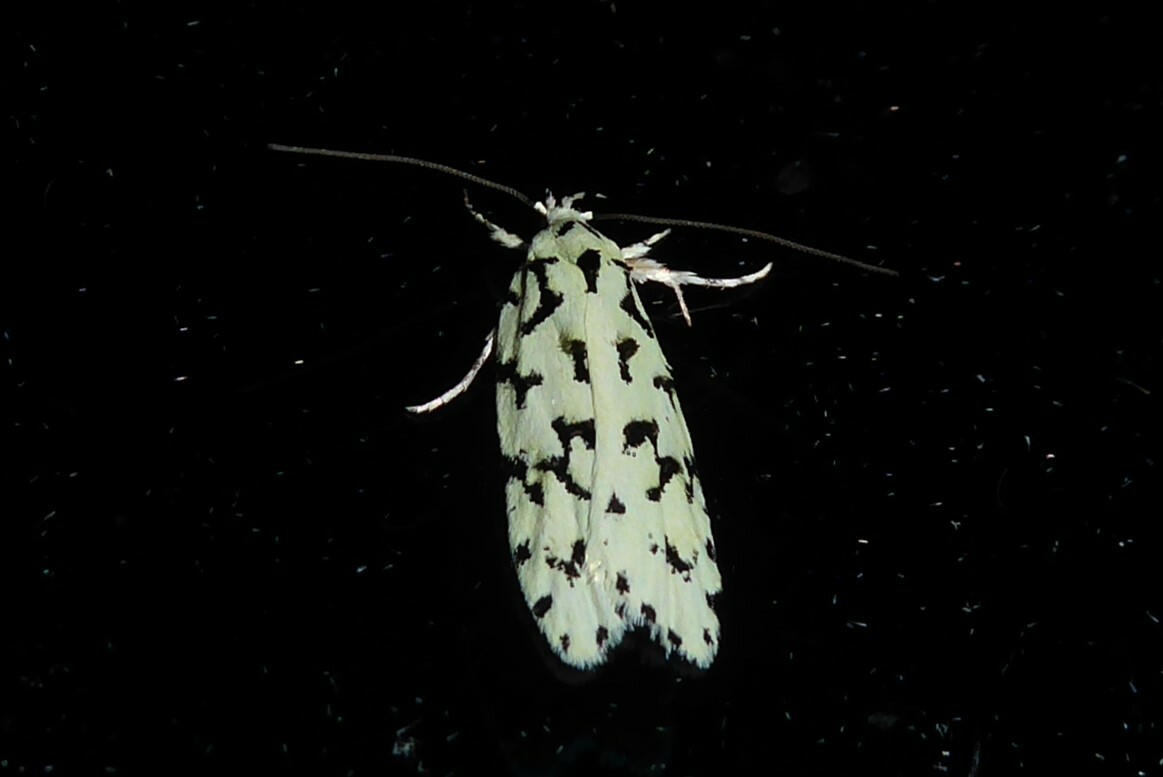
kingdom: Animalia
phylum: Arthropoda
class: Insecta
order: Lepidoptera
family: Oecophoridae
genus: Izatha
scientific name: Izatha huttoni
